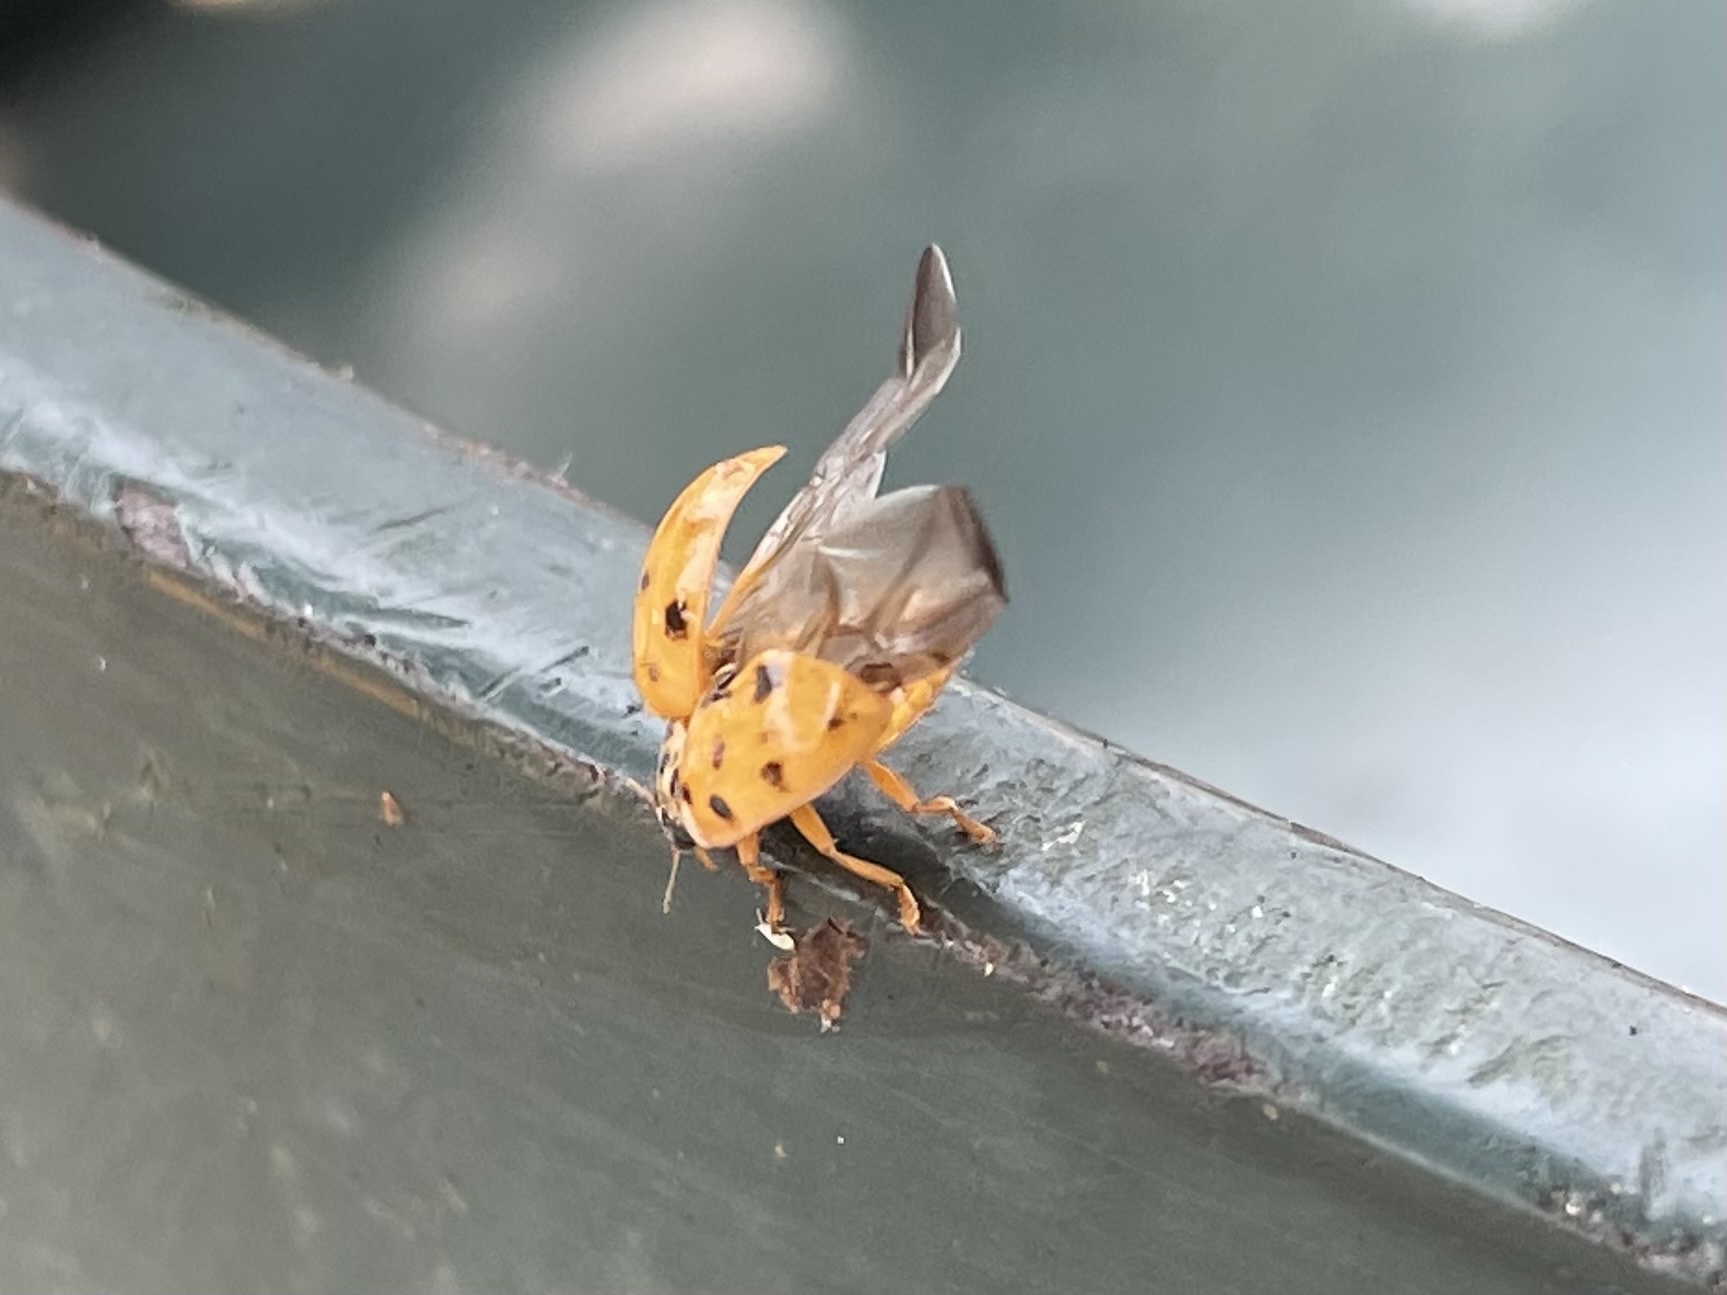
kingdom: Animalia
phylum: Arthropoda
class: Insecta
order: Coleoptera
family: Coccinellidae
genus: Harmonia
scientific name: Harmonia axyridis
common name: Harlequin ladybird
